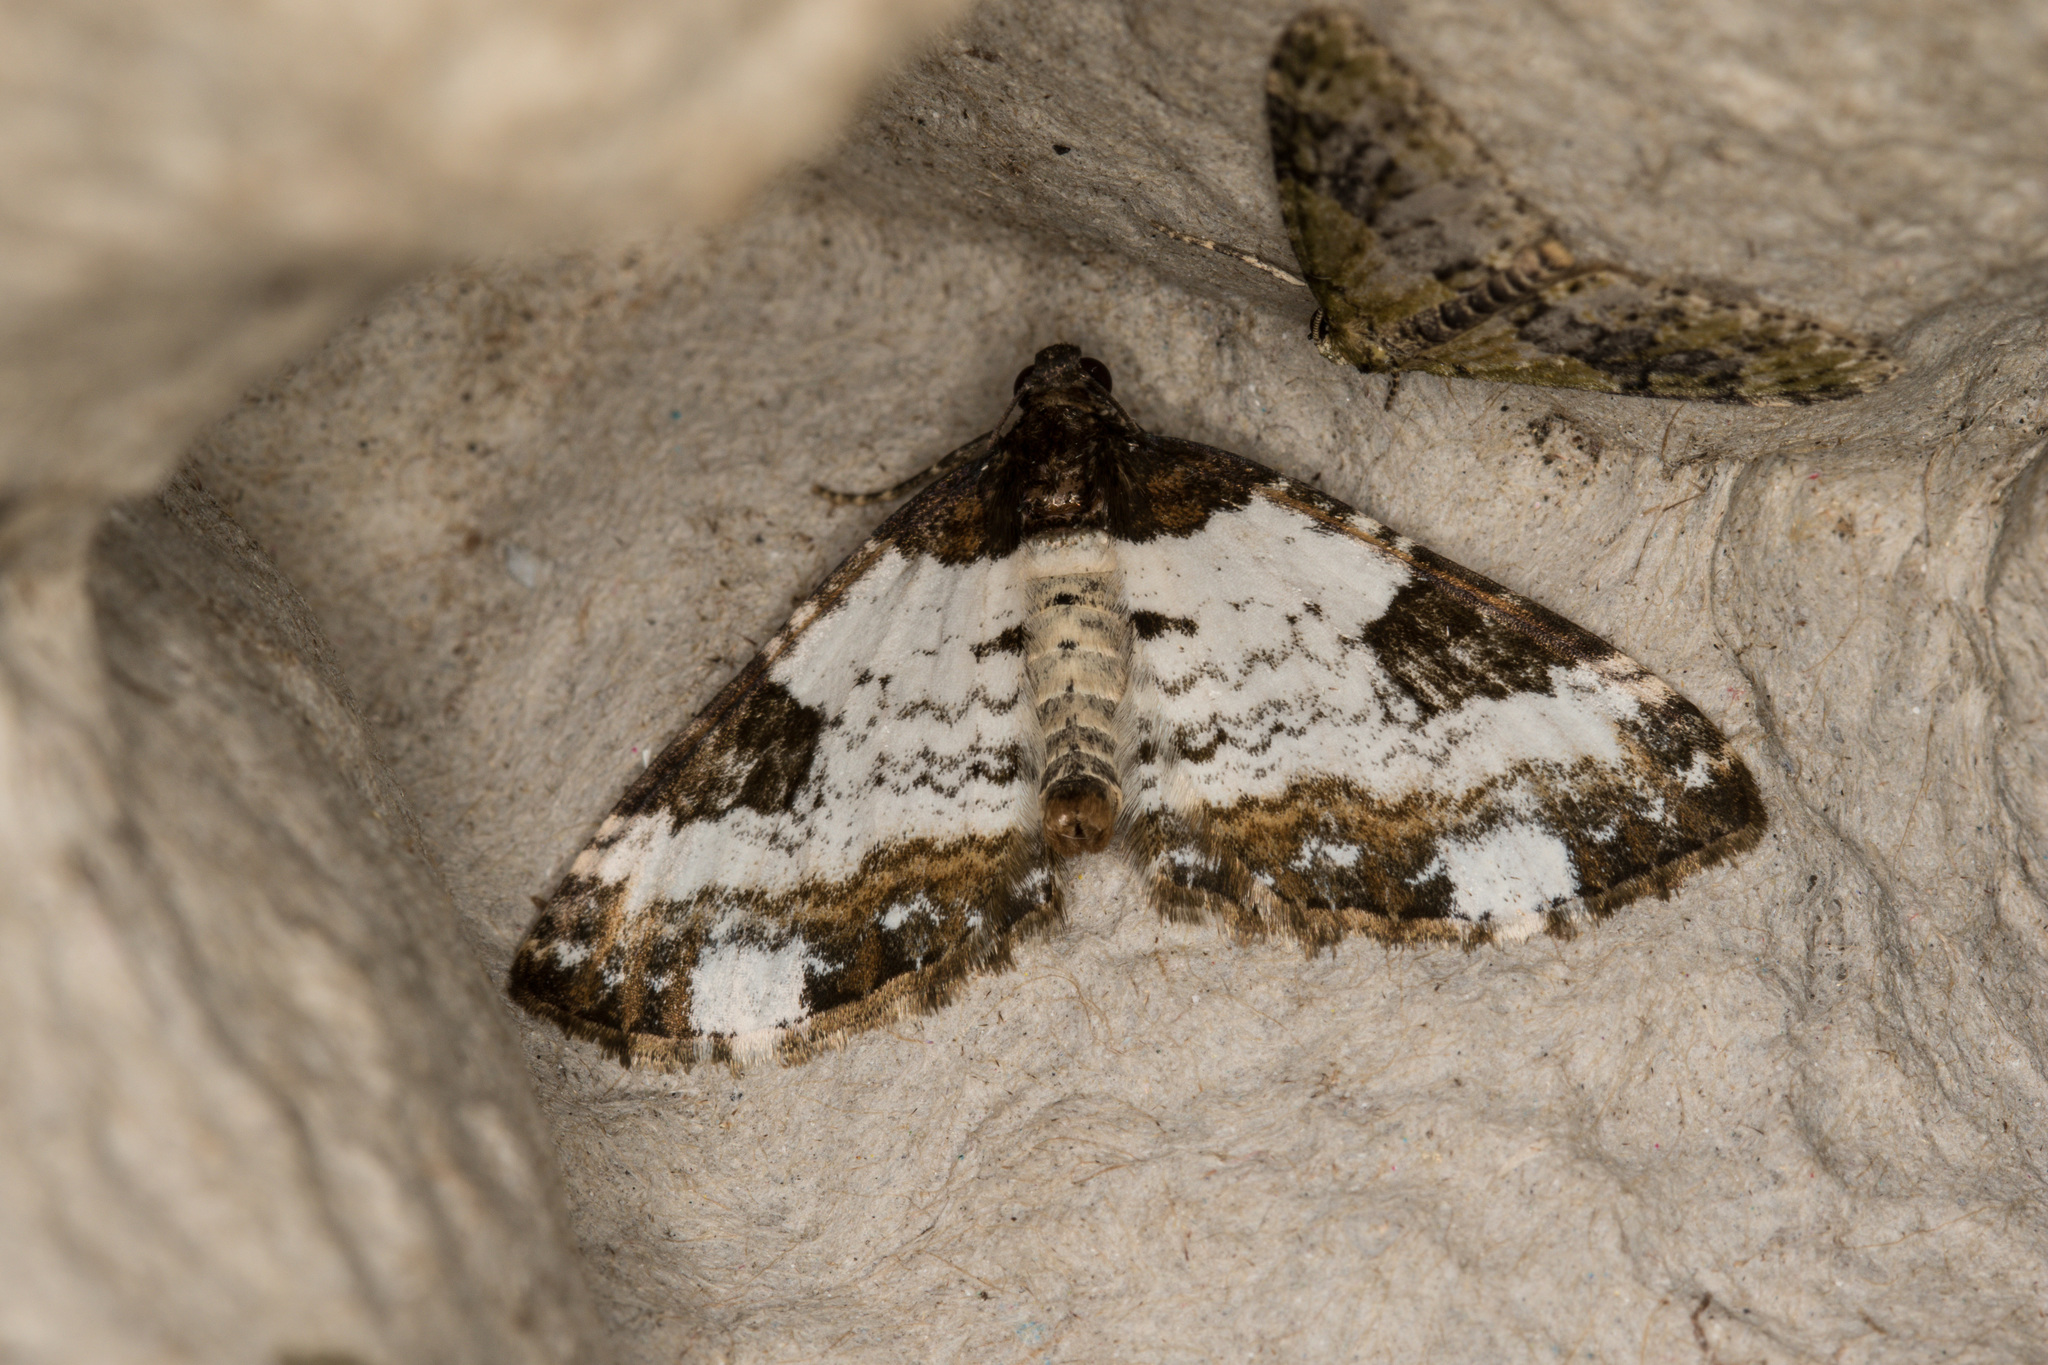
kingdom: Animalia
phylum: Arthropoda
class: Insecta
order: Lepidoptera
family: Geometridae
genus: Melanthia
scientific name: Melanthia procellata
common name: Pretty chalk carpet
